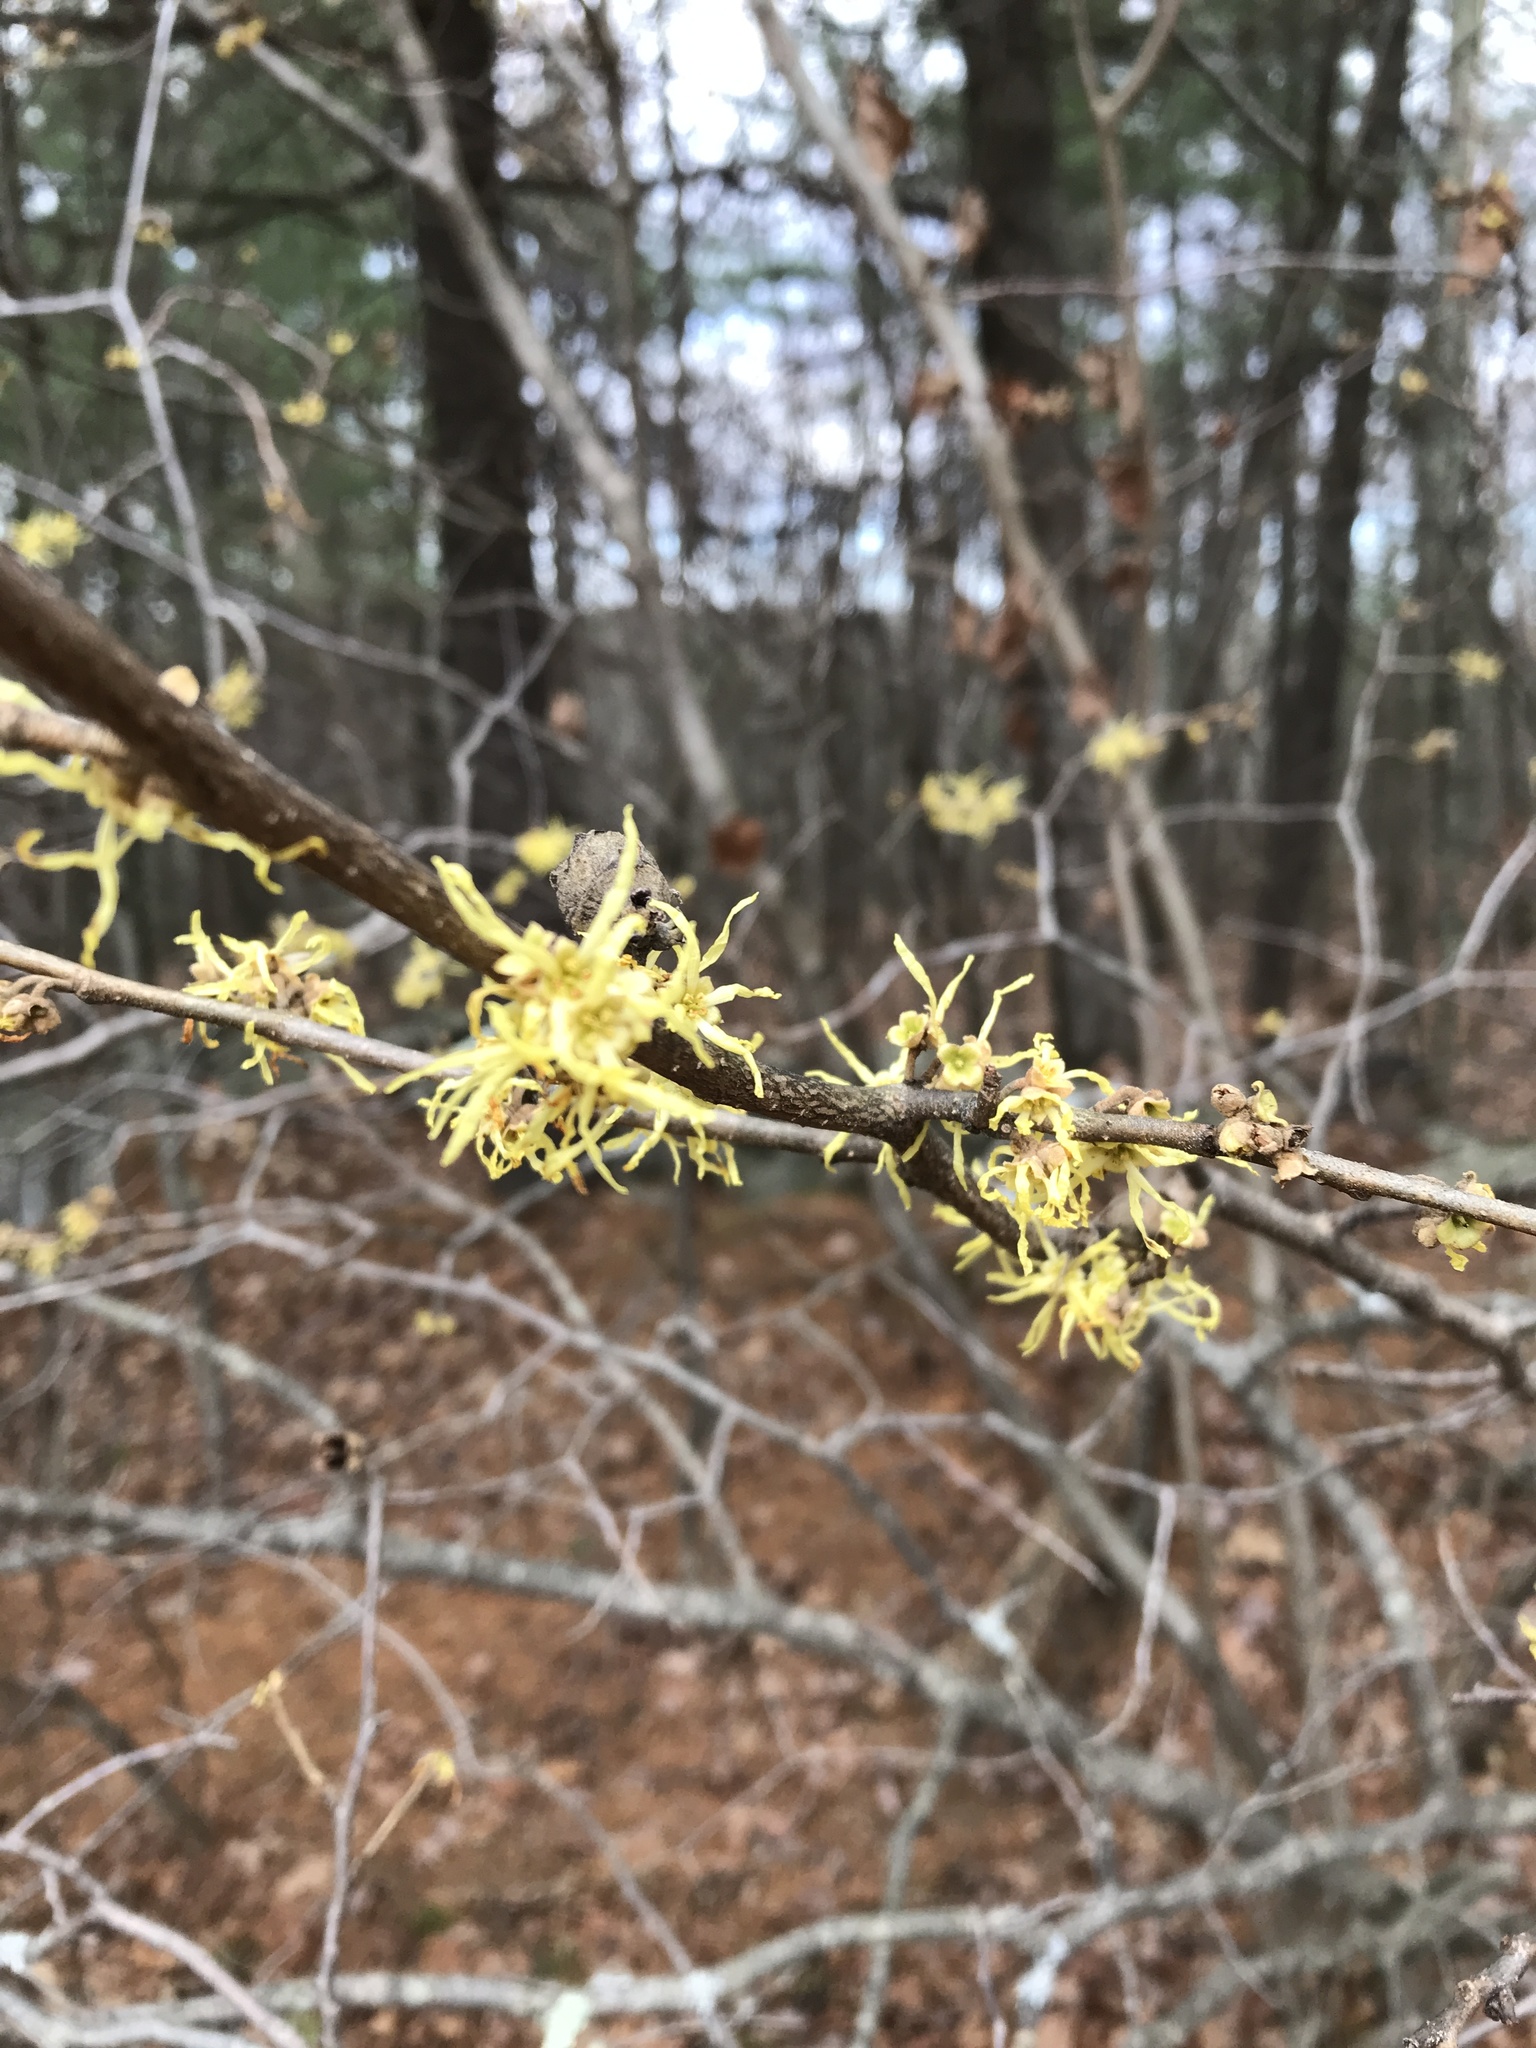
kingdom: Plantae
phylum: Tracheophyta
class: Magnoliopsida
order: Saxifragales
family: Hamamelidaceae
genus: Hamamelis
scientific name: Hamamelis virginiana
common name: Witch-hazel
